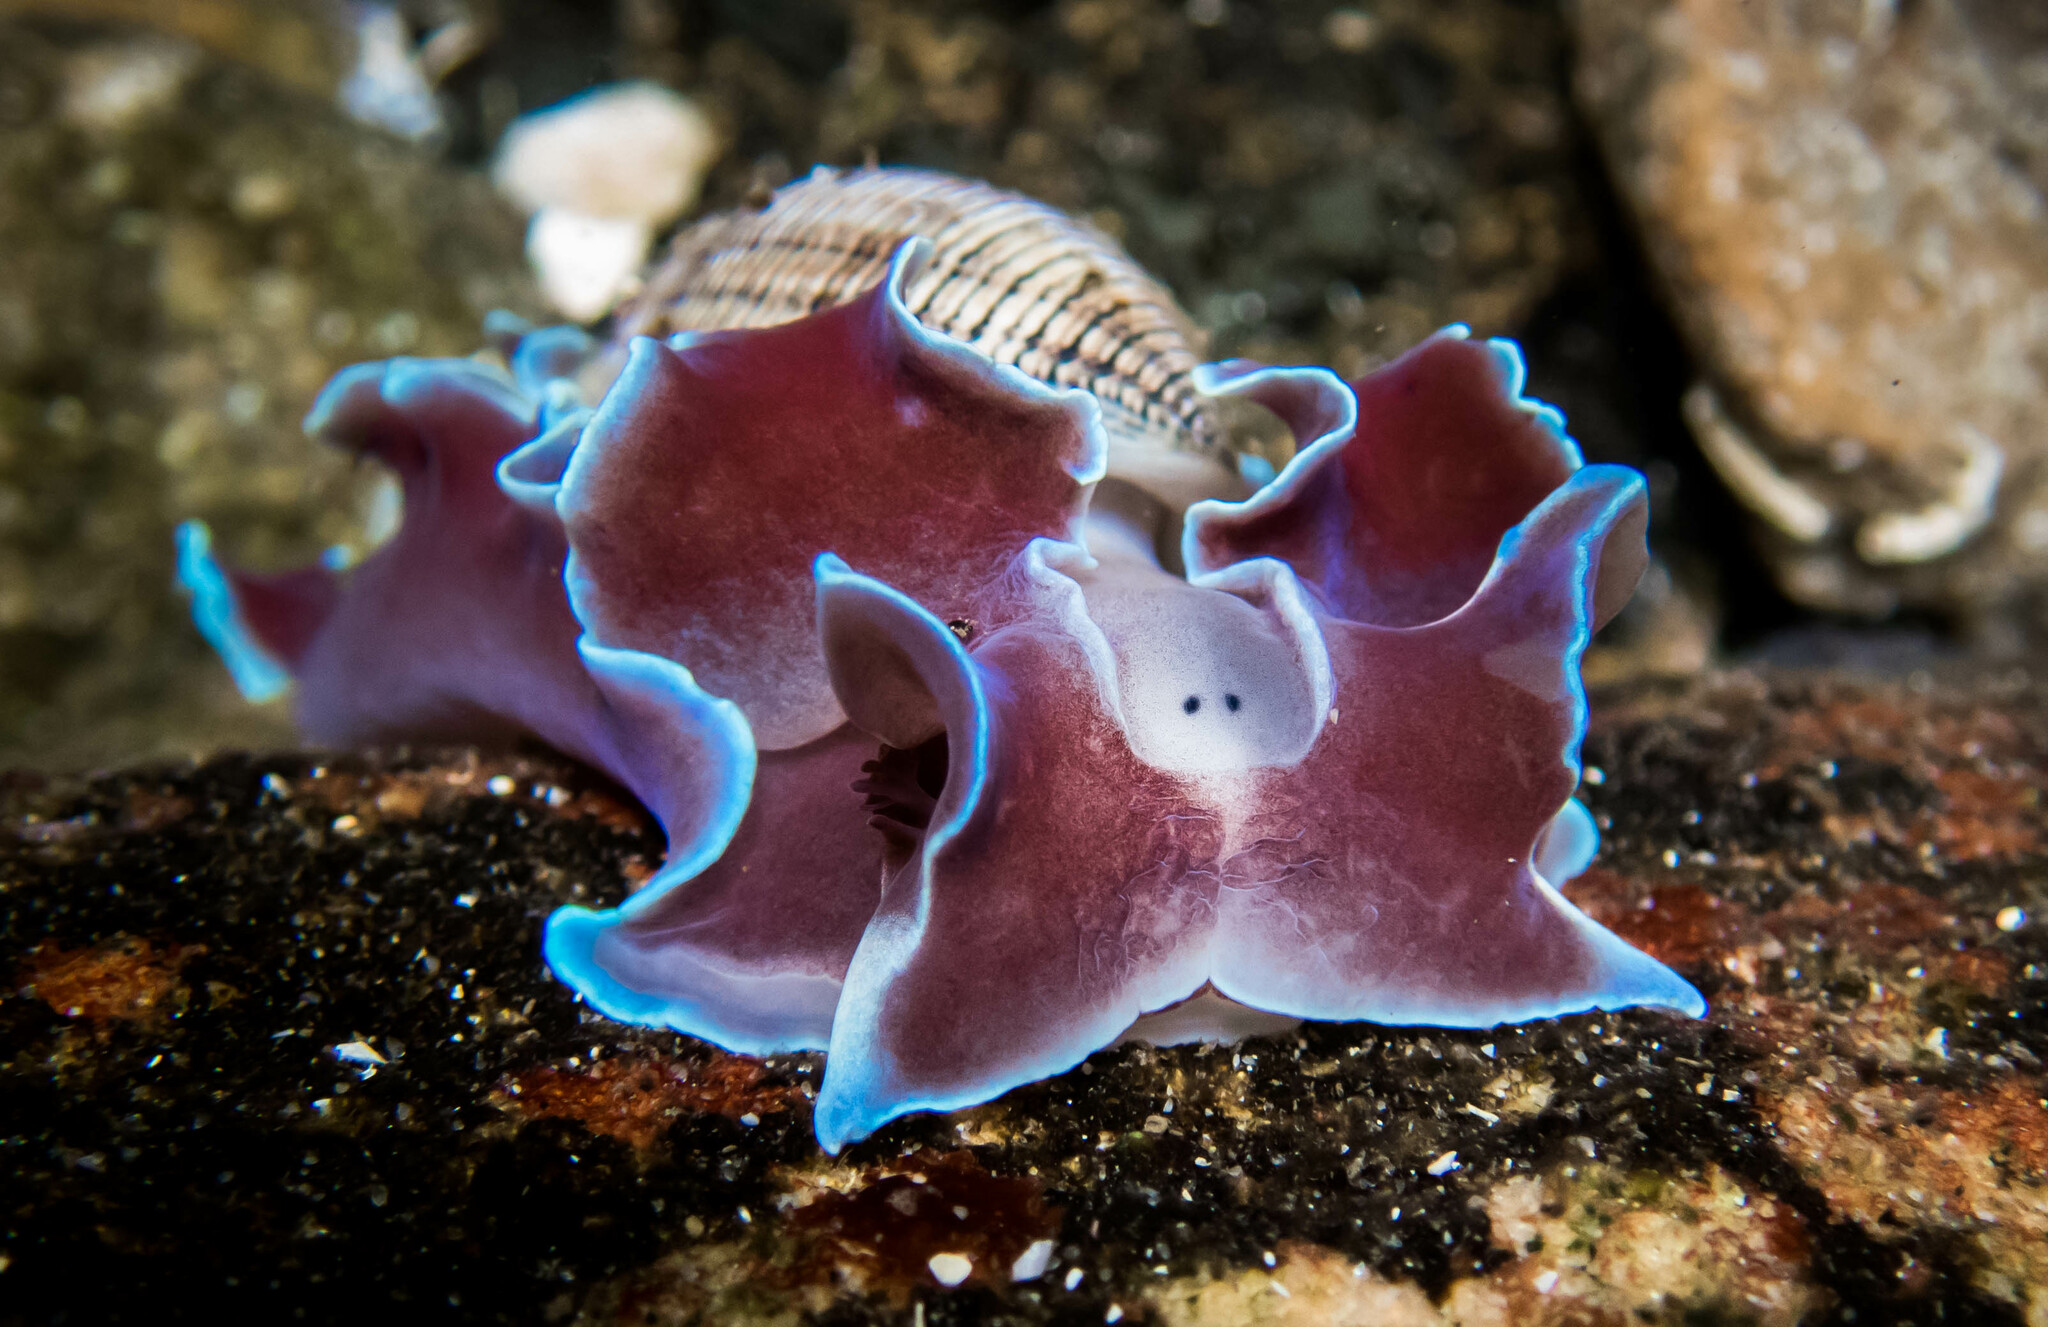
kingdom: Animalia
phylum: Mollusca
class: Gastropoda
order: Cephalaspidea
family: Aplustridae
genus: Hydatina
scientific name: Hydatina physis
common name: Brown-line paperbubble
